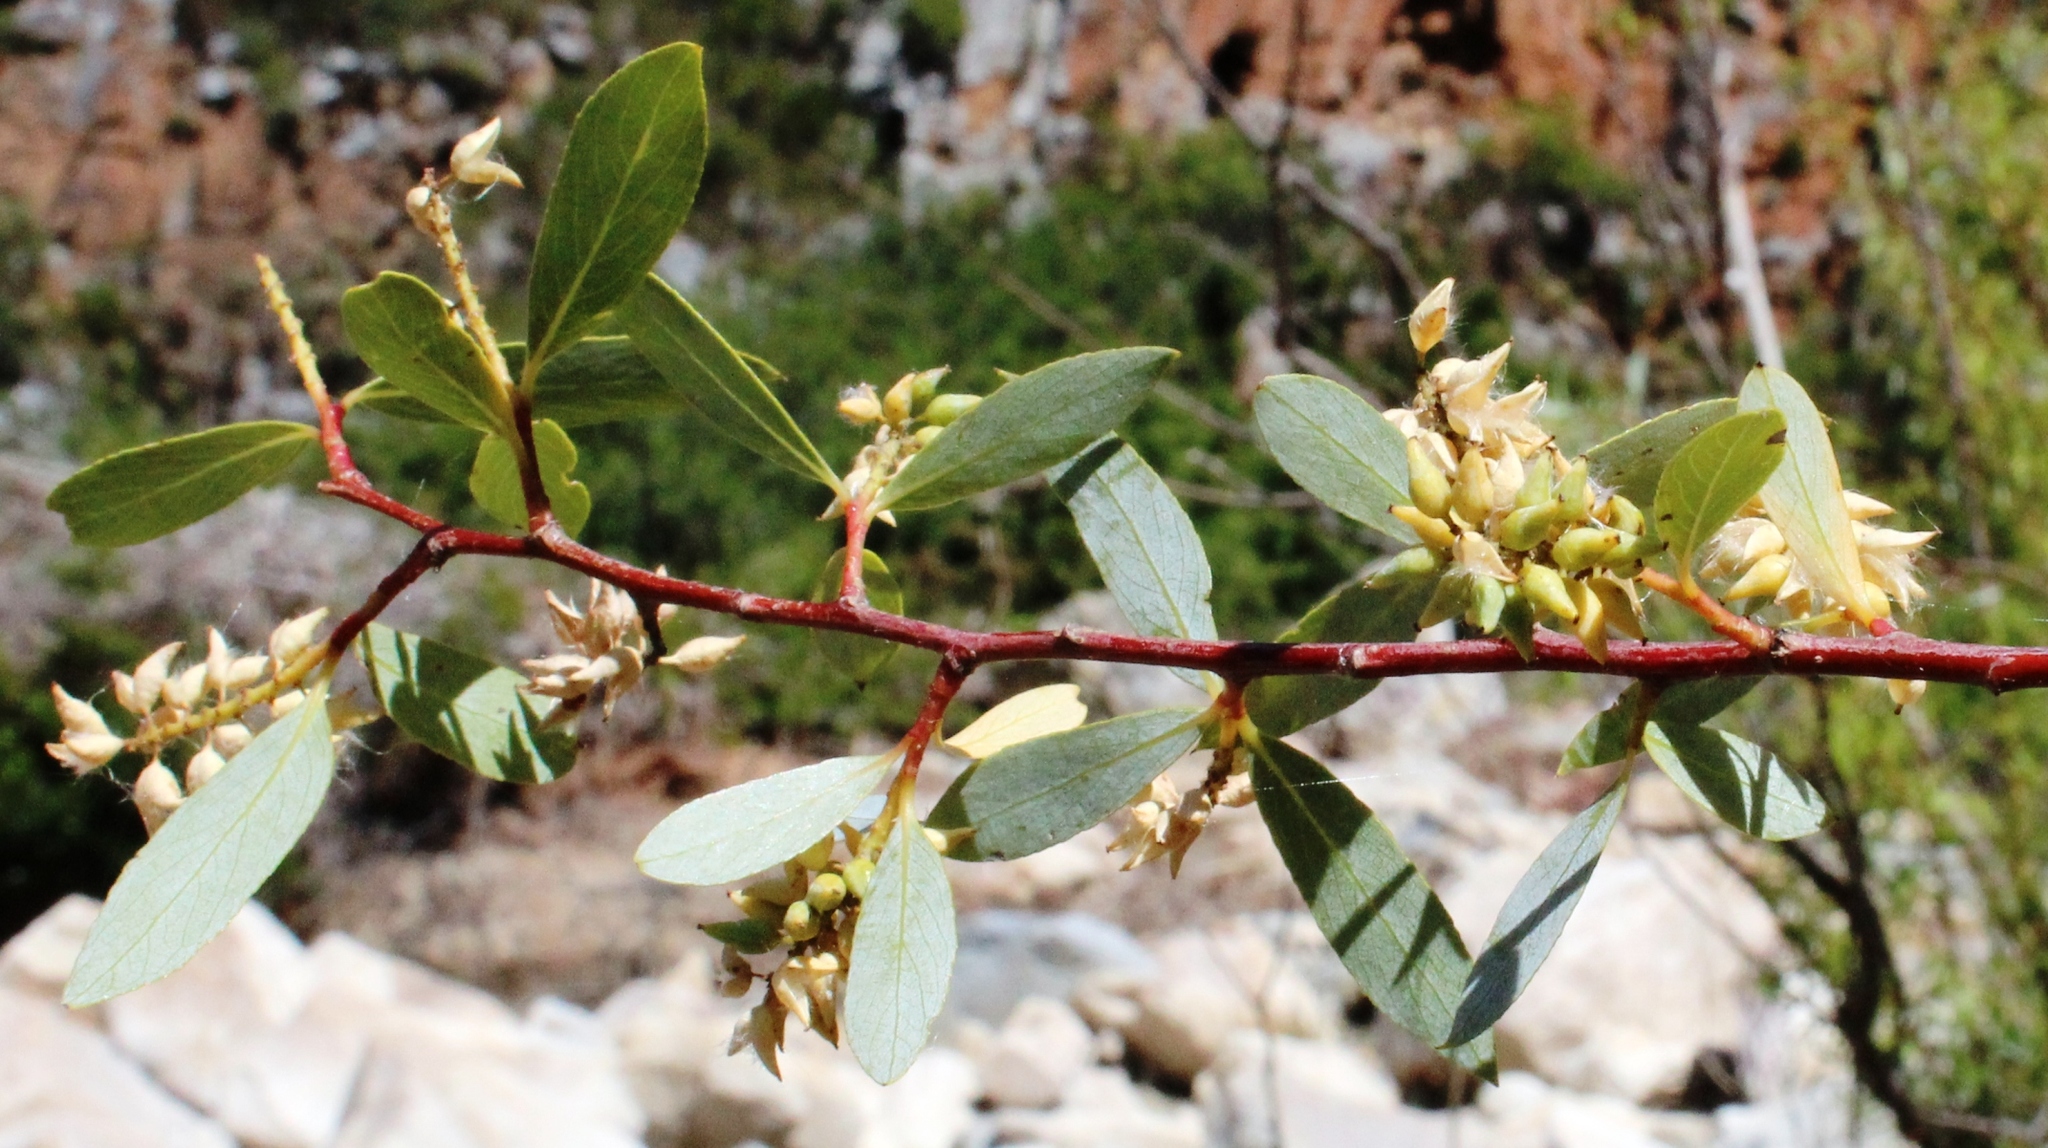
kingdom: Plantae
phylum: Tracheophyta
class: Magnoliopsida
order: Malpighiales
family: Salicaceae
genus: Salix
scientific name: Salix mucronata
